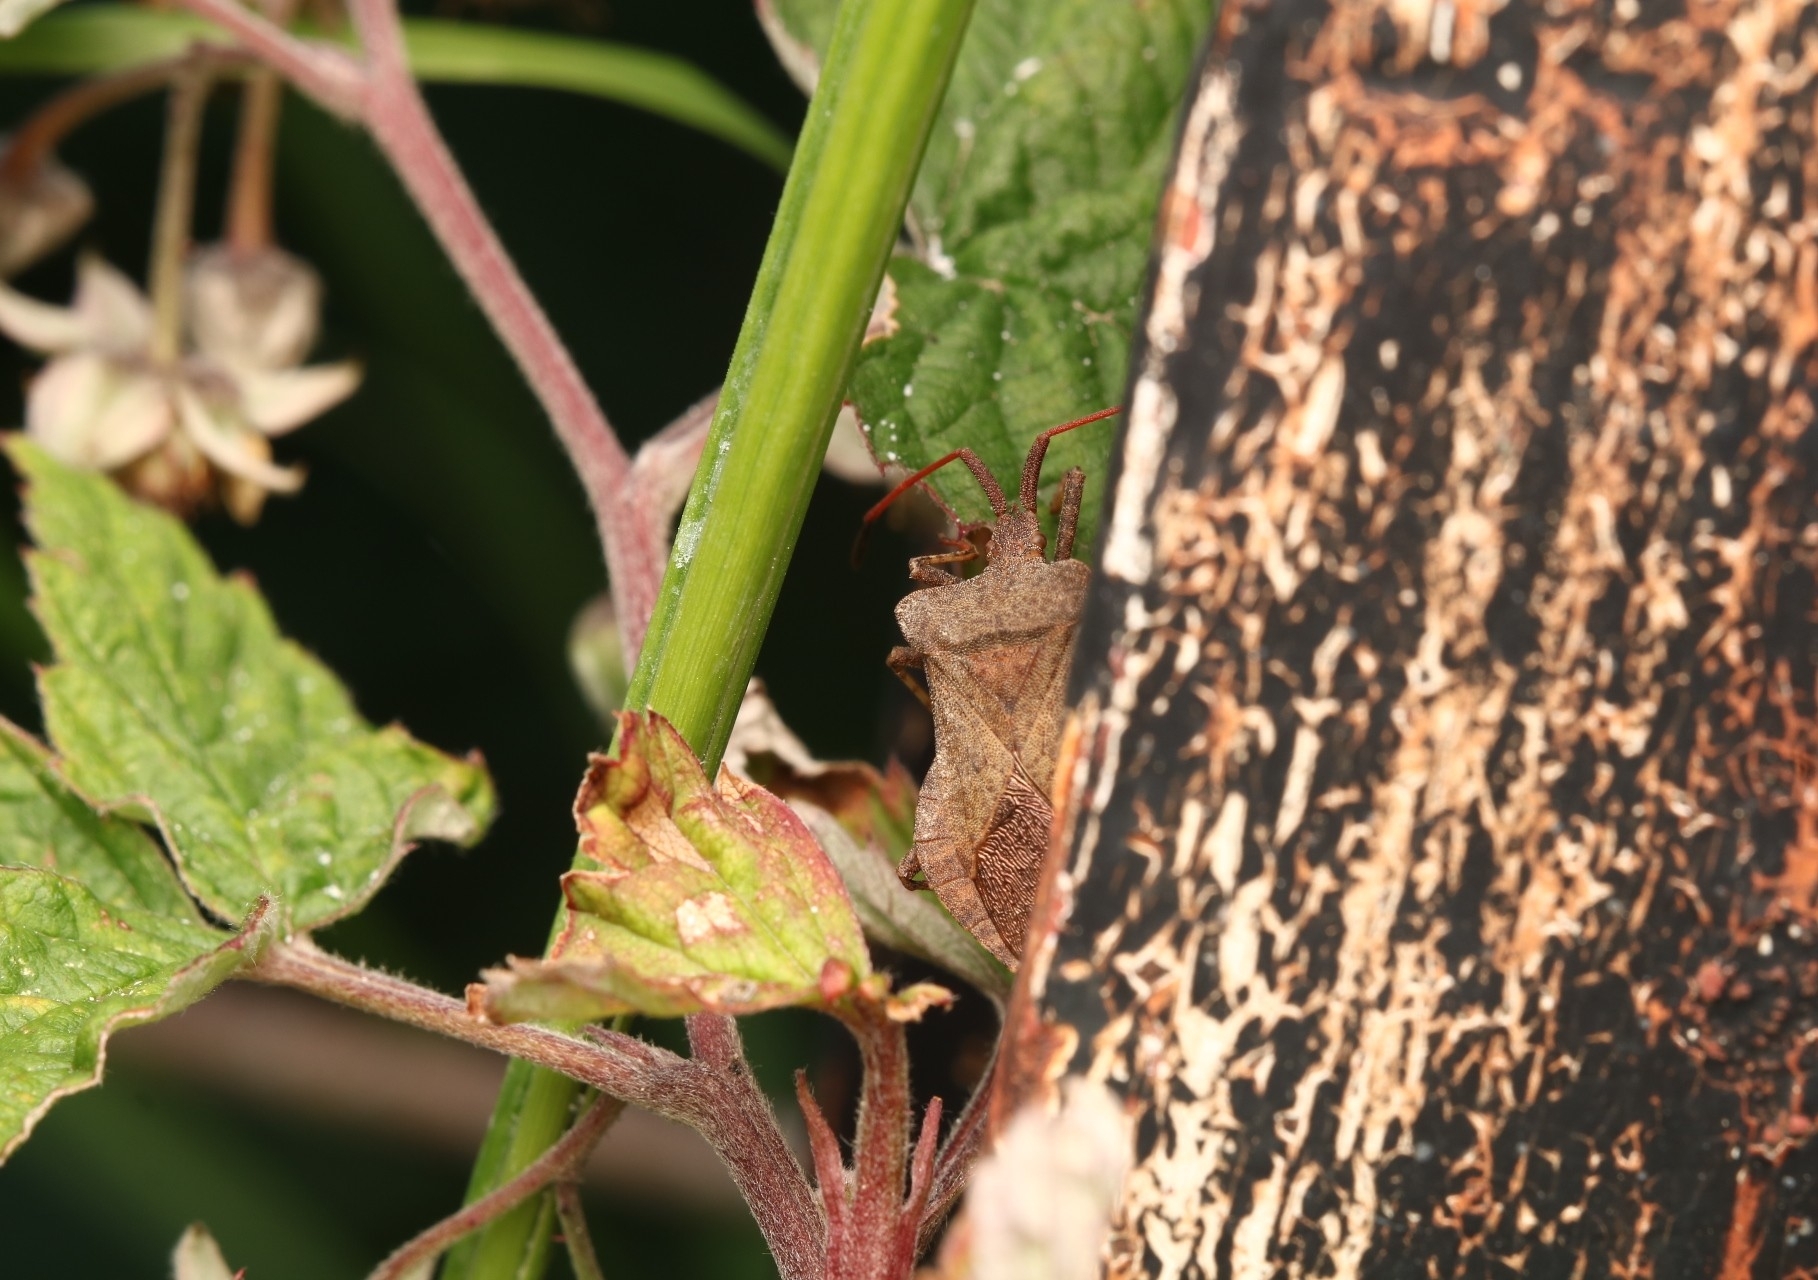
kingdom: Animalia
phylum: Arthropoda
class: Insecta
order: Hemiptera
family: Coreidae
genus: Coreus
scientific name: Coreus marginatus
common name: Dock bug
